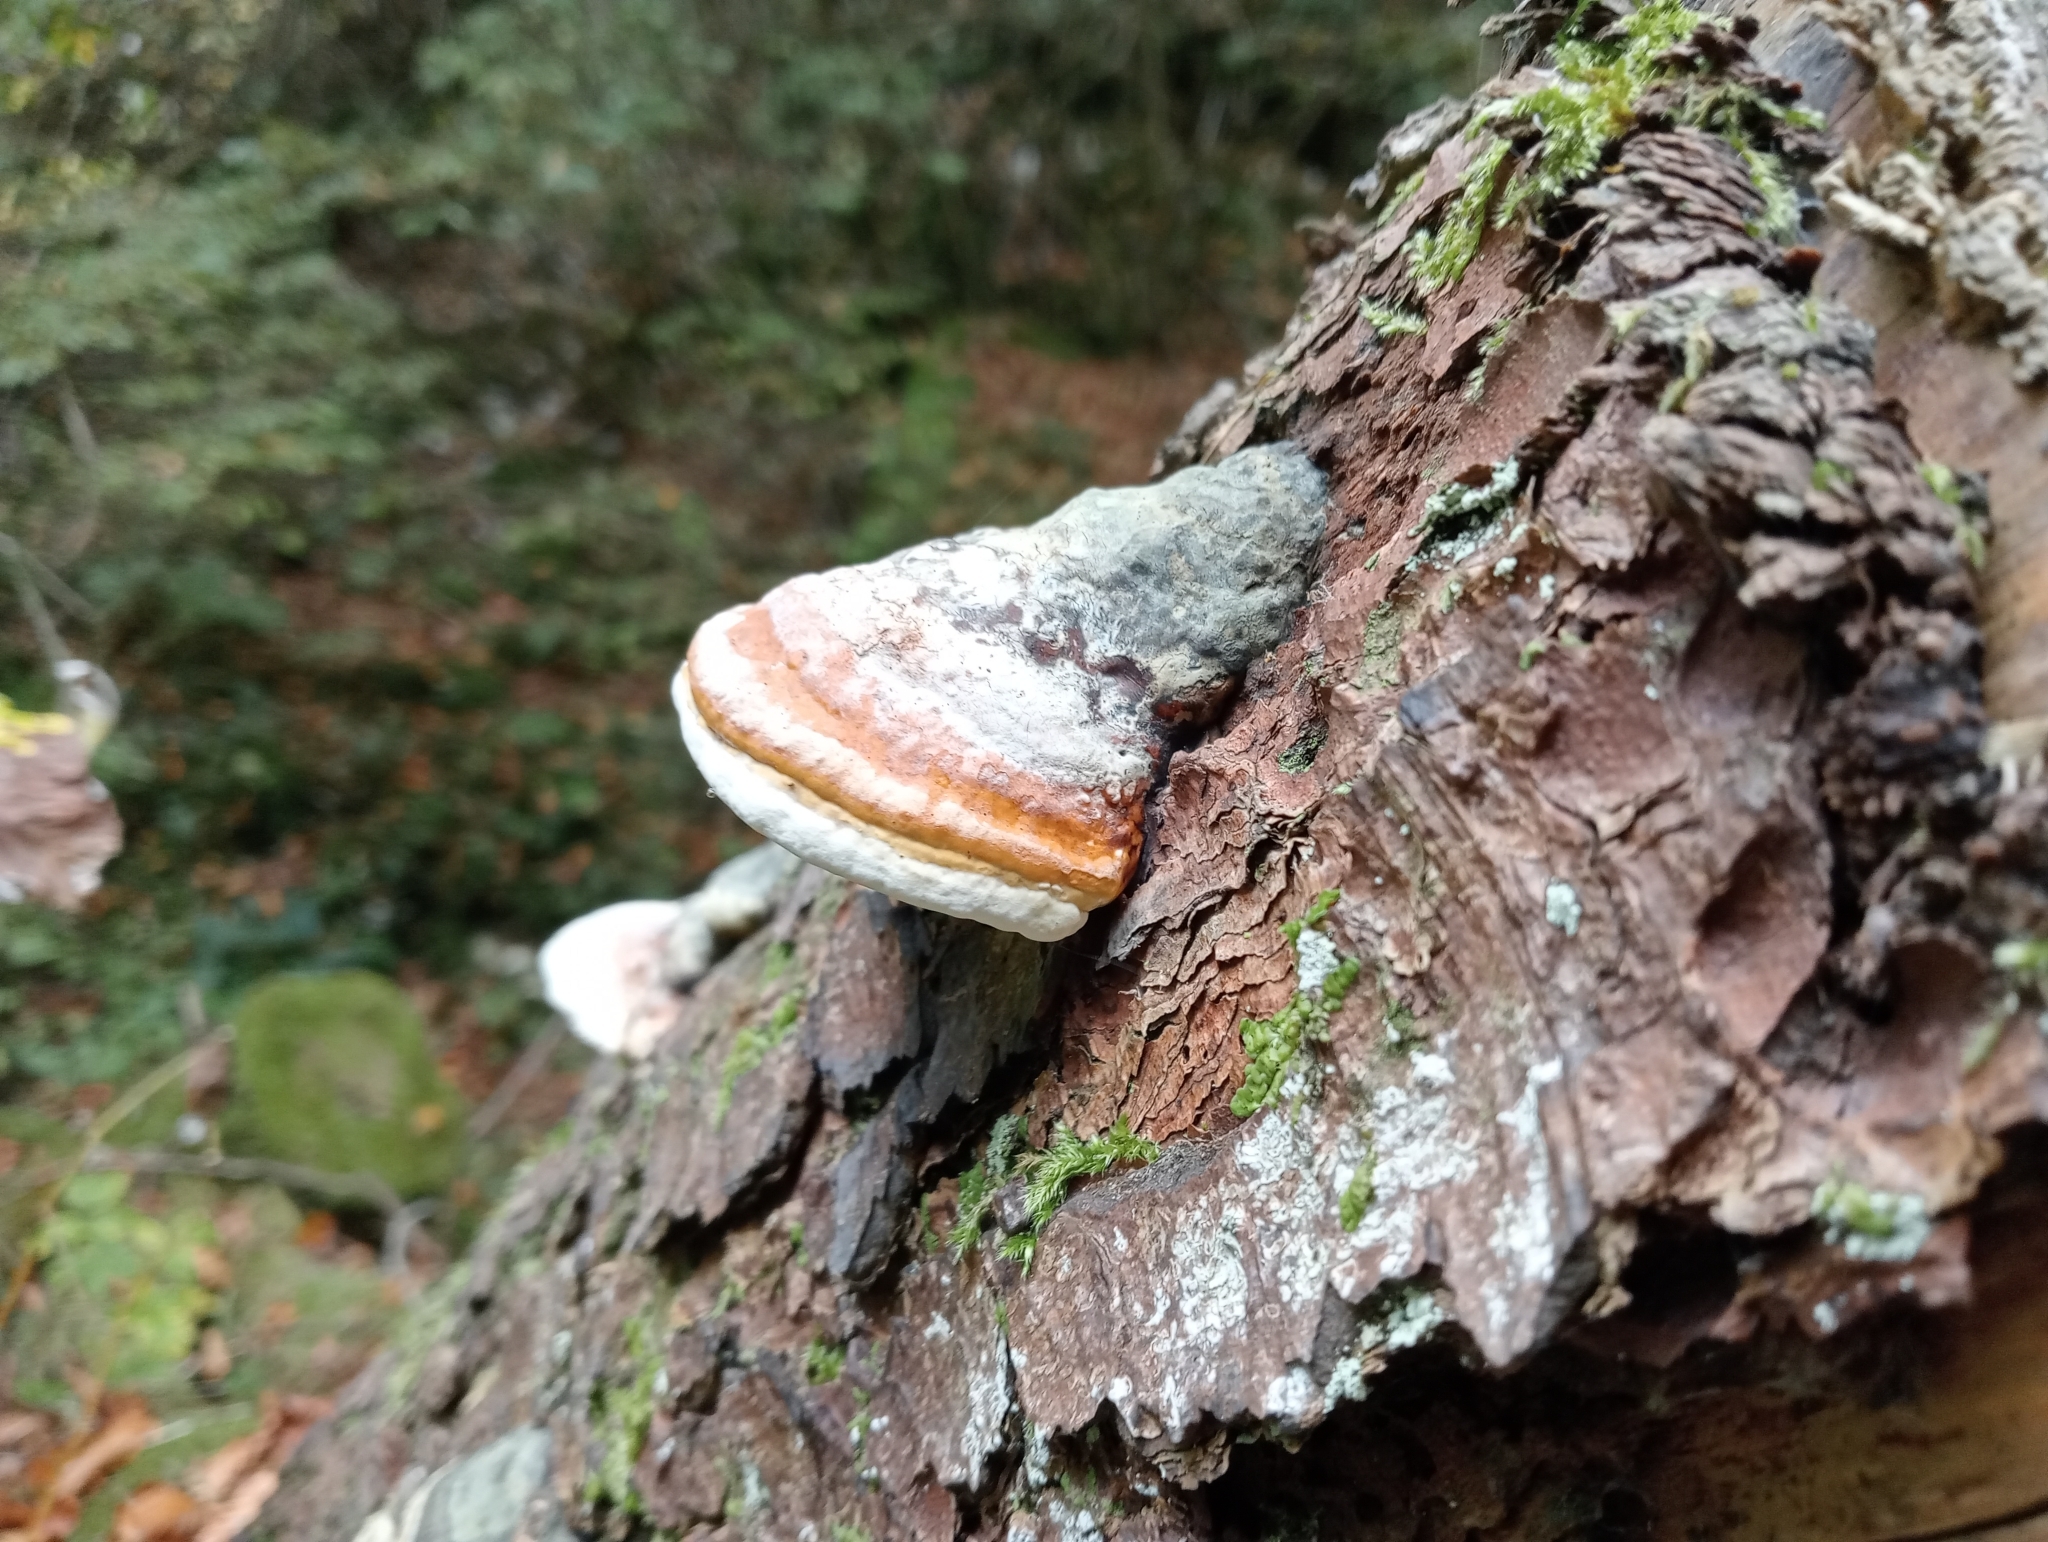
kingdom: Fungi
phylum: Basidiomycota
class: Agaricomycetes
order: Polyporales
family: Fomitopsidaceae
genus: Fomitopsis
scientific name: Fomitopsis pinicola
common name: Red-belted bracket
